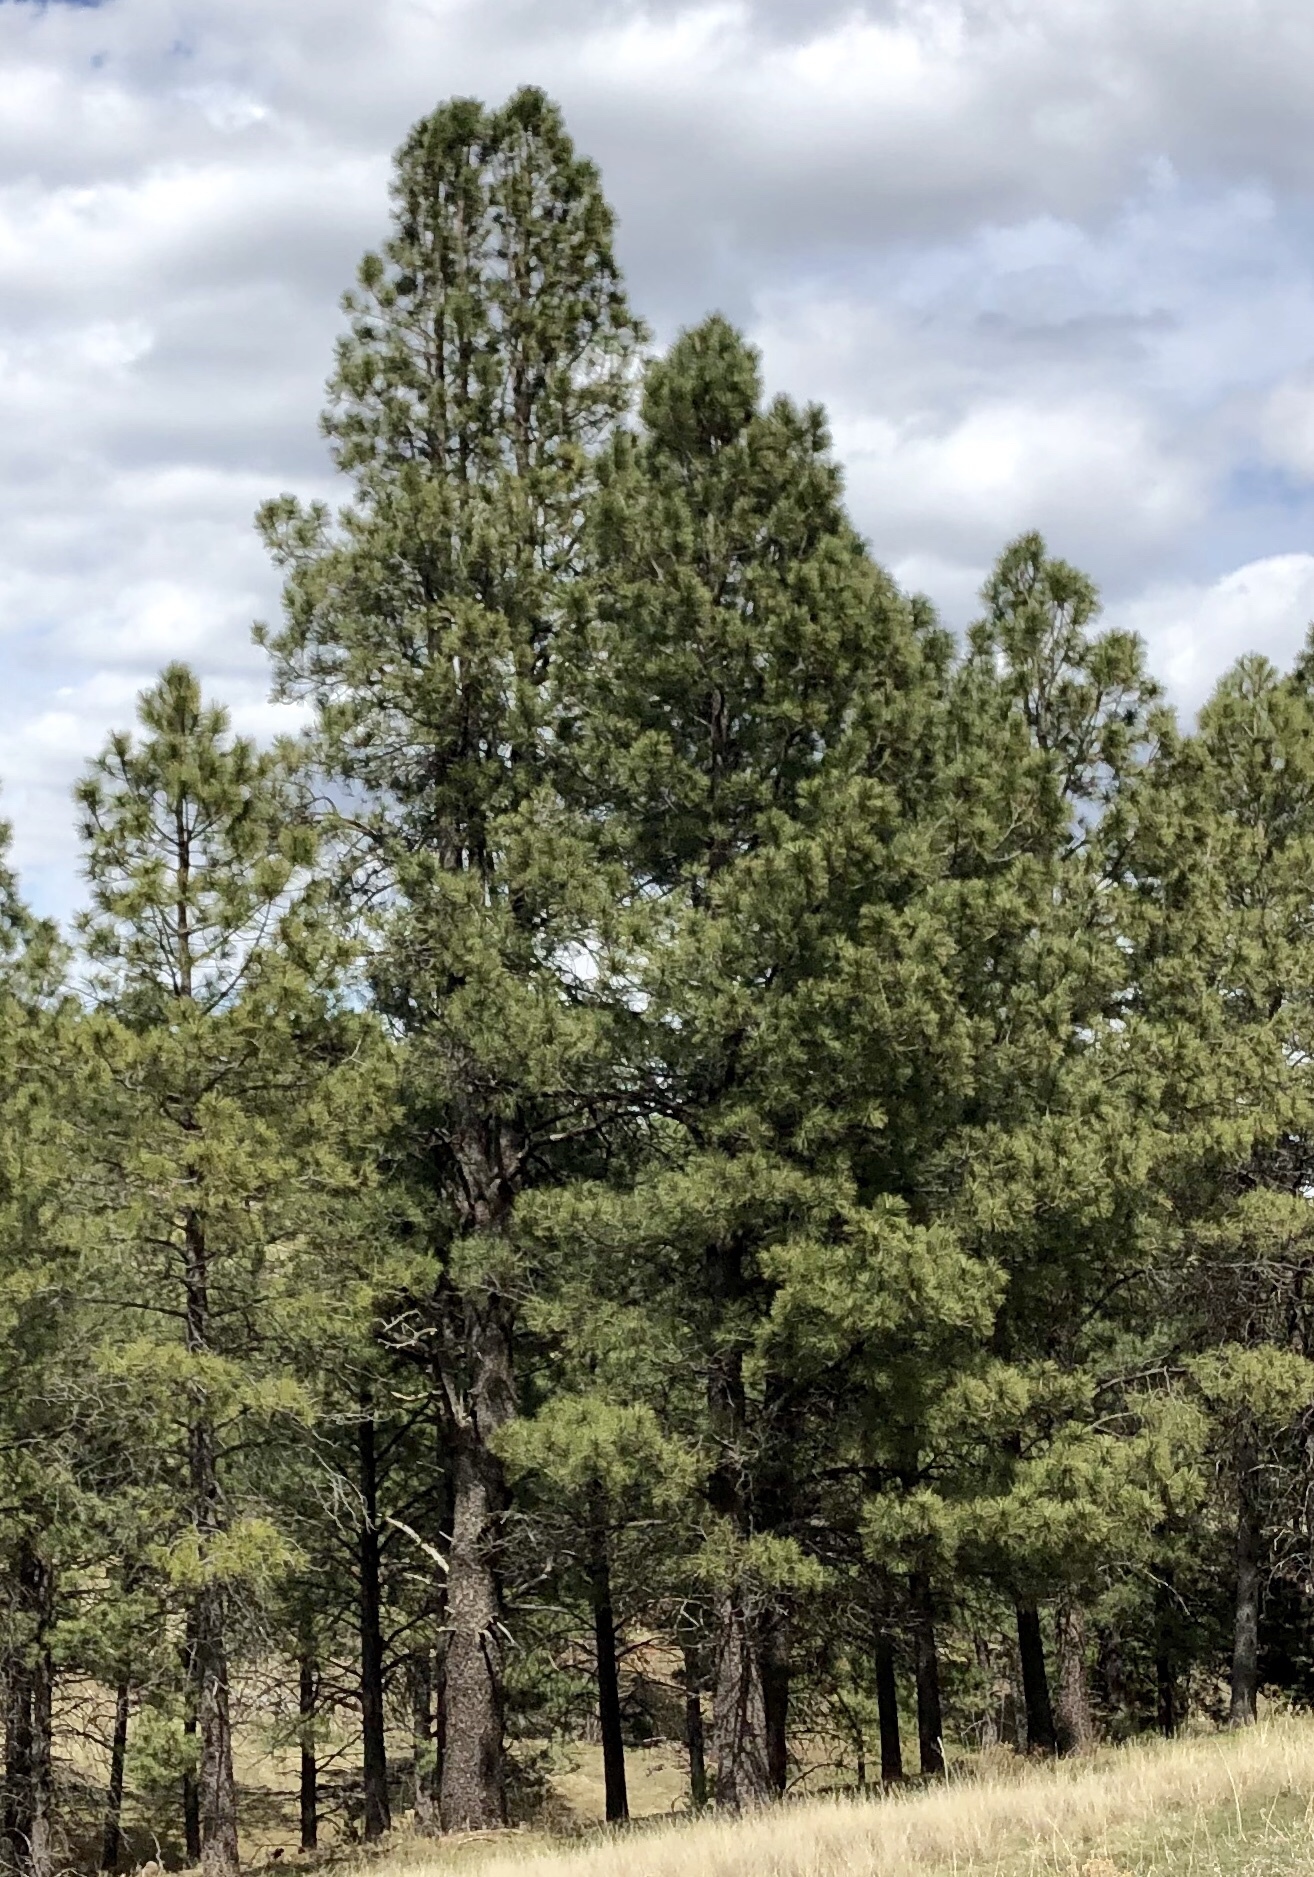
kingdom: Plantae
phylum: Tracheophyta
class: Pinopsida
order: Pinales
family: Pinaceae
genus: Pinus
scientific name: Pinus ponderosa
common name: Western yellow-pine
